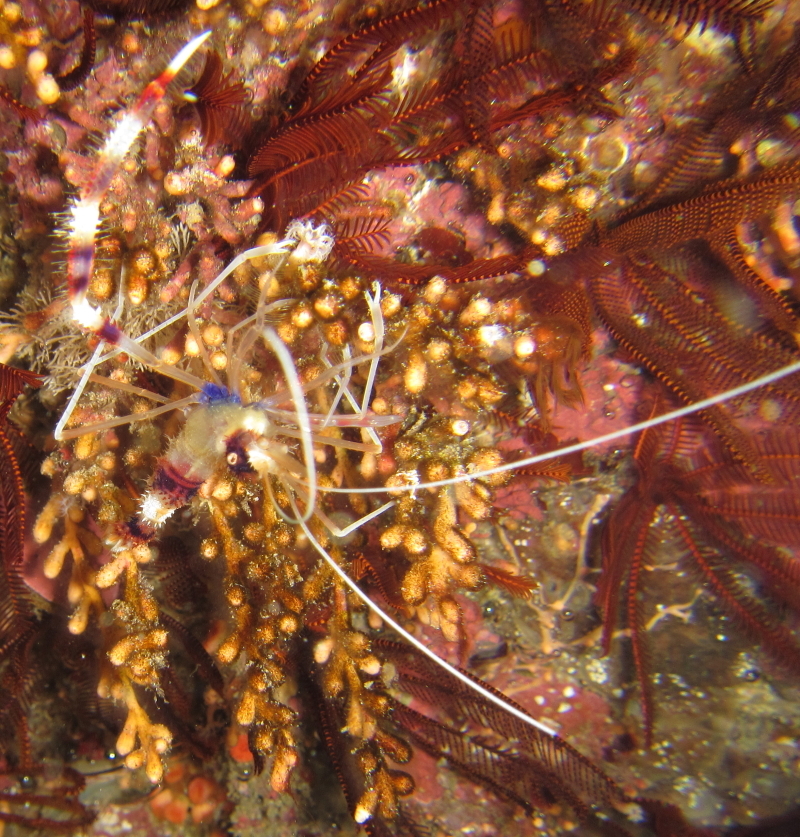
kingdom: Animalia
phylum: Arthropoda
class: Malacostraca
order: Decapoda
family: Stenopodidae
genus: Stenopus
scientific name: Stenopus hispidus
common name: Banded coral shrimp
